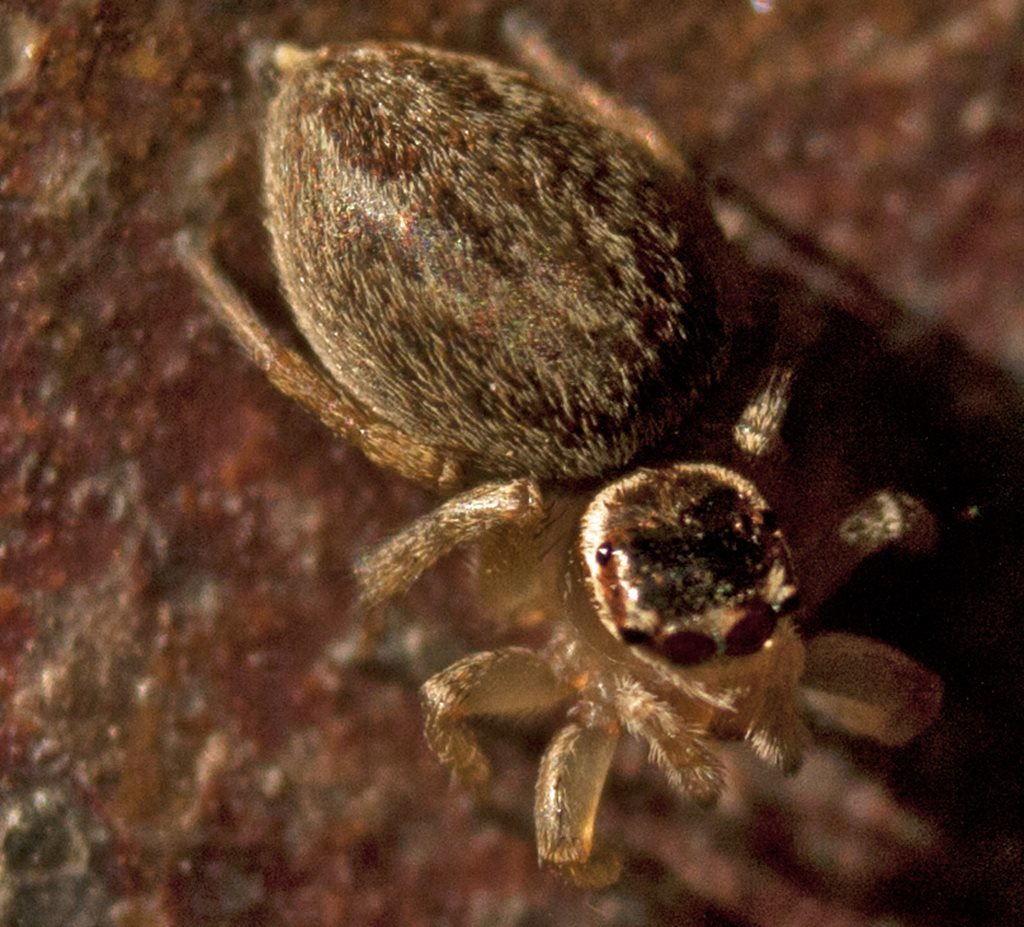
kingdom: Animalia
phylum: Arthropoda
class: Arachnida
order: Araneae
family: Salticidae
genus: Maratus
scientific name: Maratus griseus
